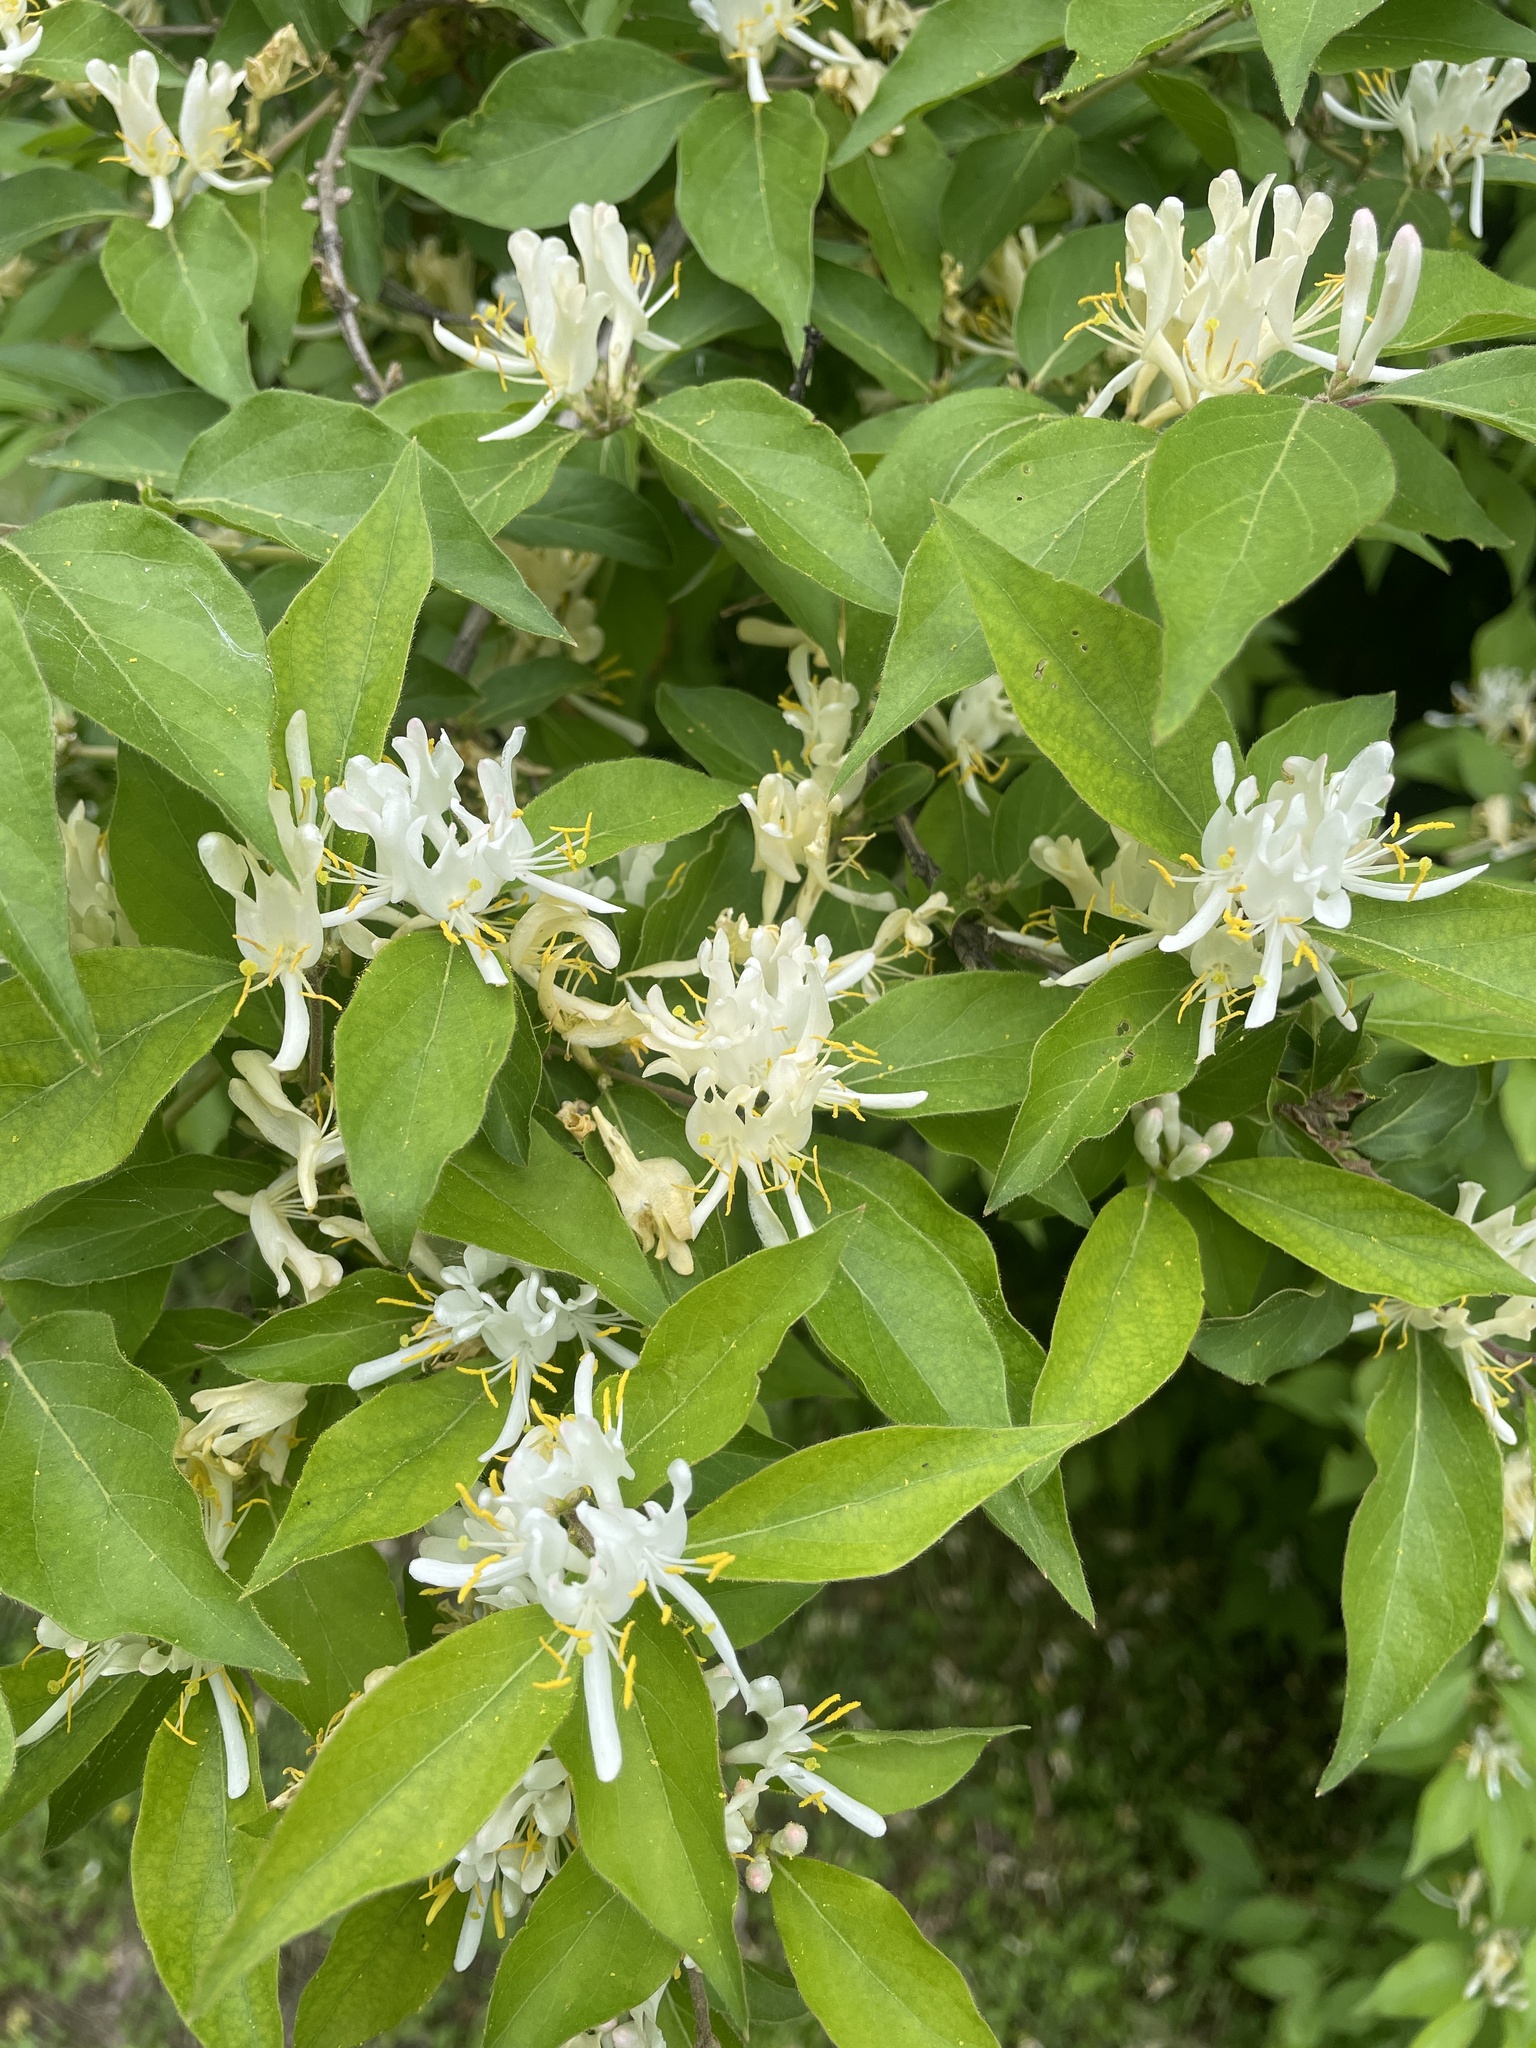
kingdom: Plantae
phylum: Tracheophyta
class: Magnoliopsida
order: Dipsacales
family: Caprifoliaceae
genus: Lonicera
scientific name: Lonicera maackii
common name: Amur honeysuckle
